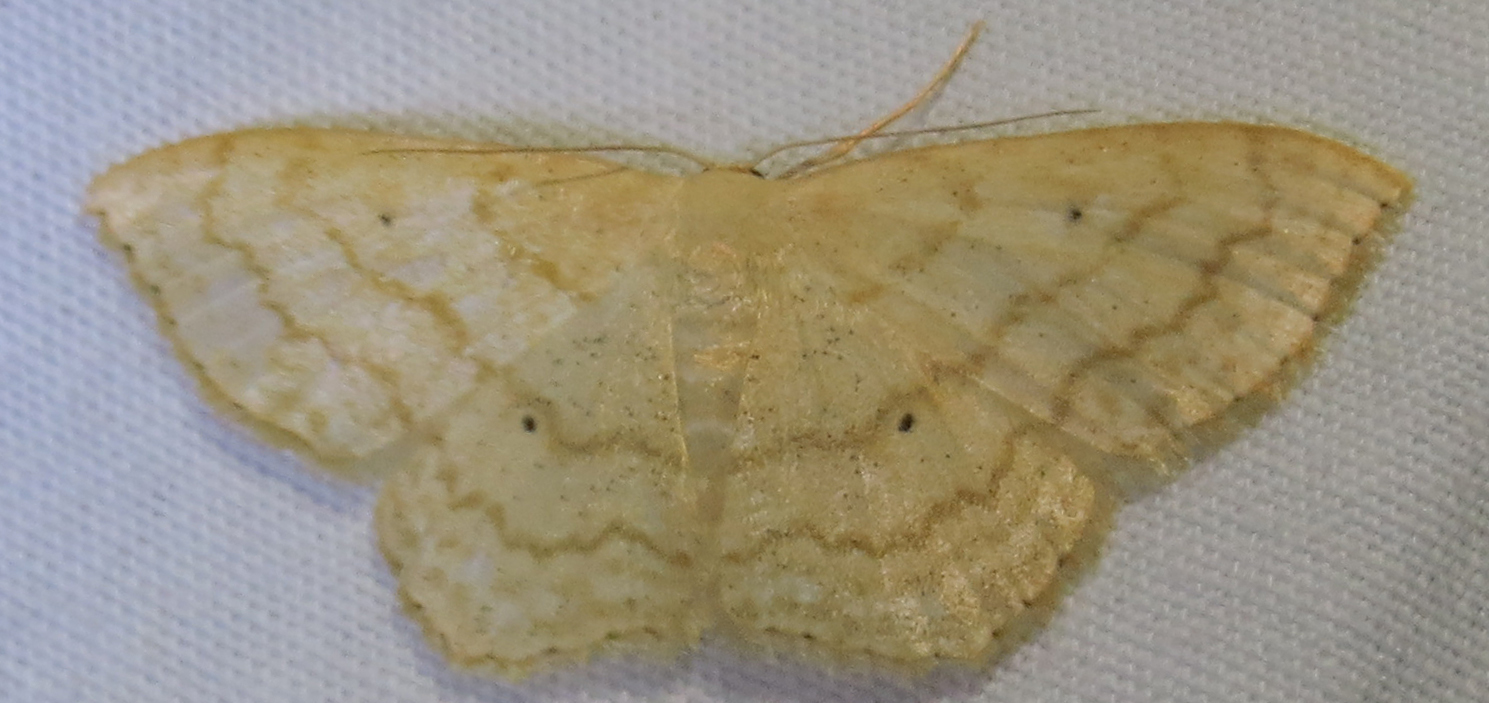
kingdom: Animalia
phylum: Arthropoda
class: Insecta
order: Lepidoptera
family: Geometridae
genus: Scopula
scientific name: Scopula limboundata
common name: Large lace border
